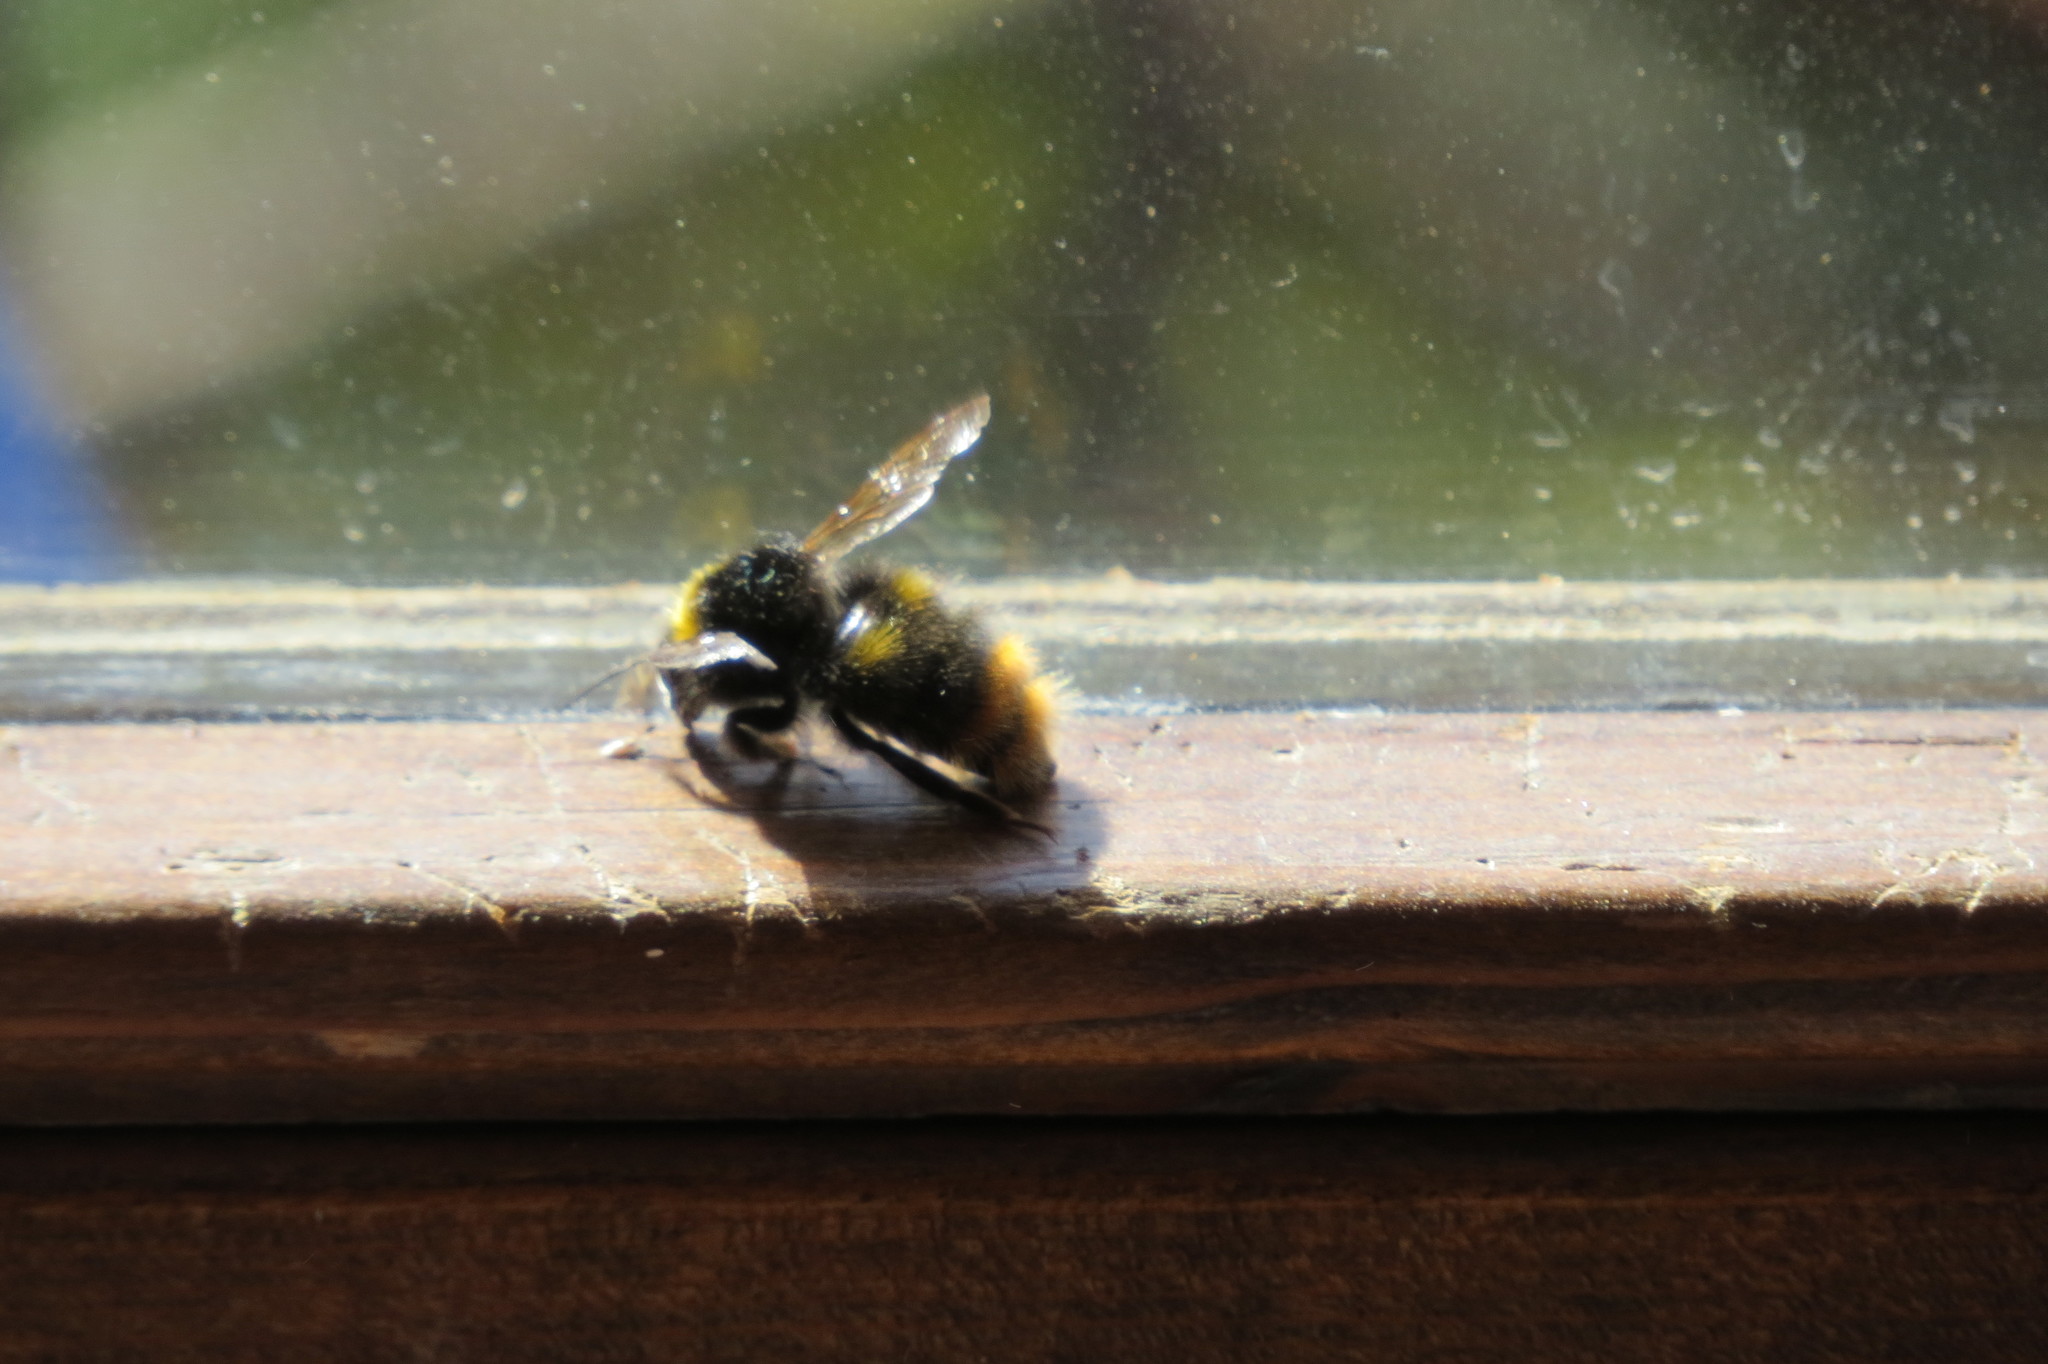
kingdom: Animalia
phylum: Arthropoda
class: Insecta
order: Hymenoptera
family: Apidae
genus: Bombus
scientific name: Bombus pratorum
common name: Early humble-bee
